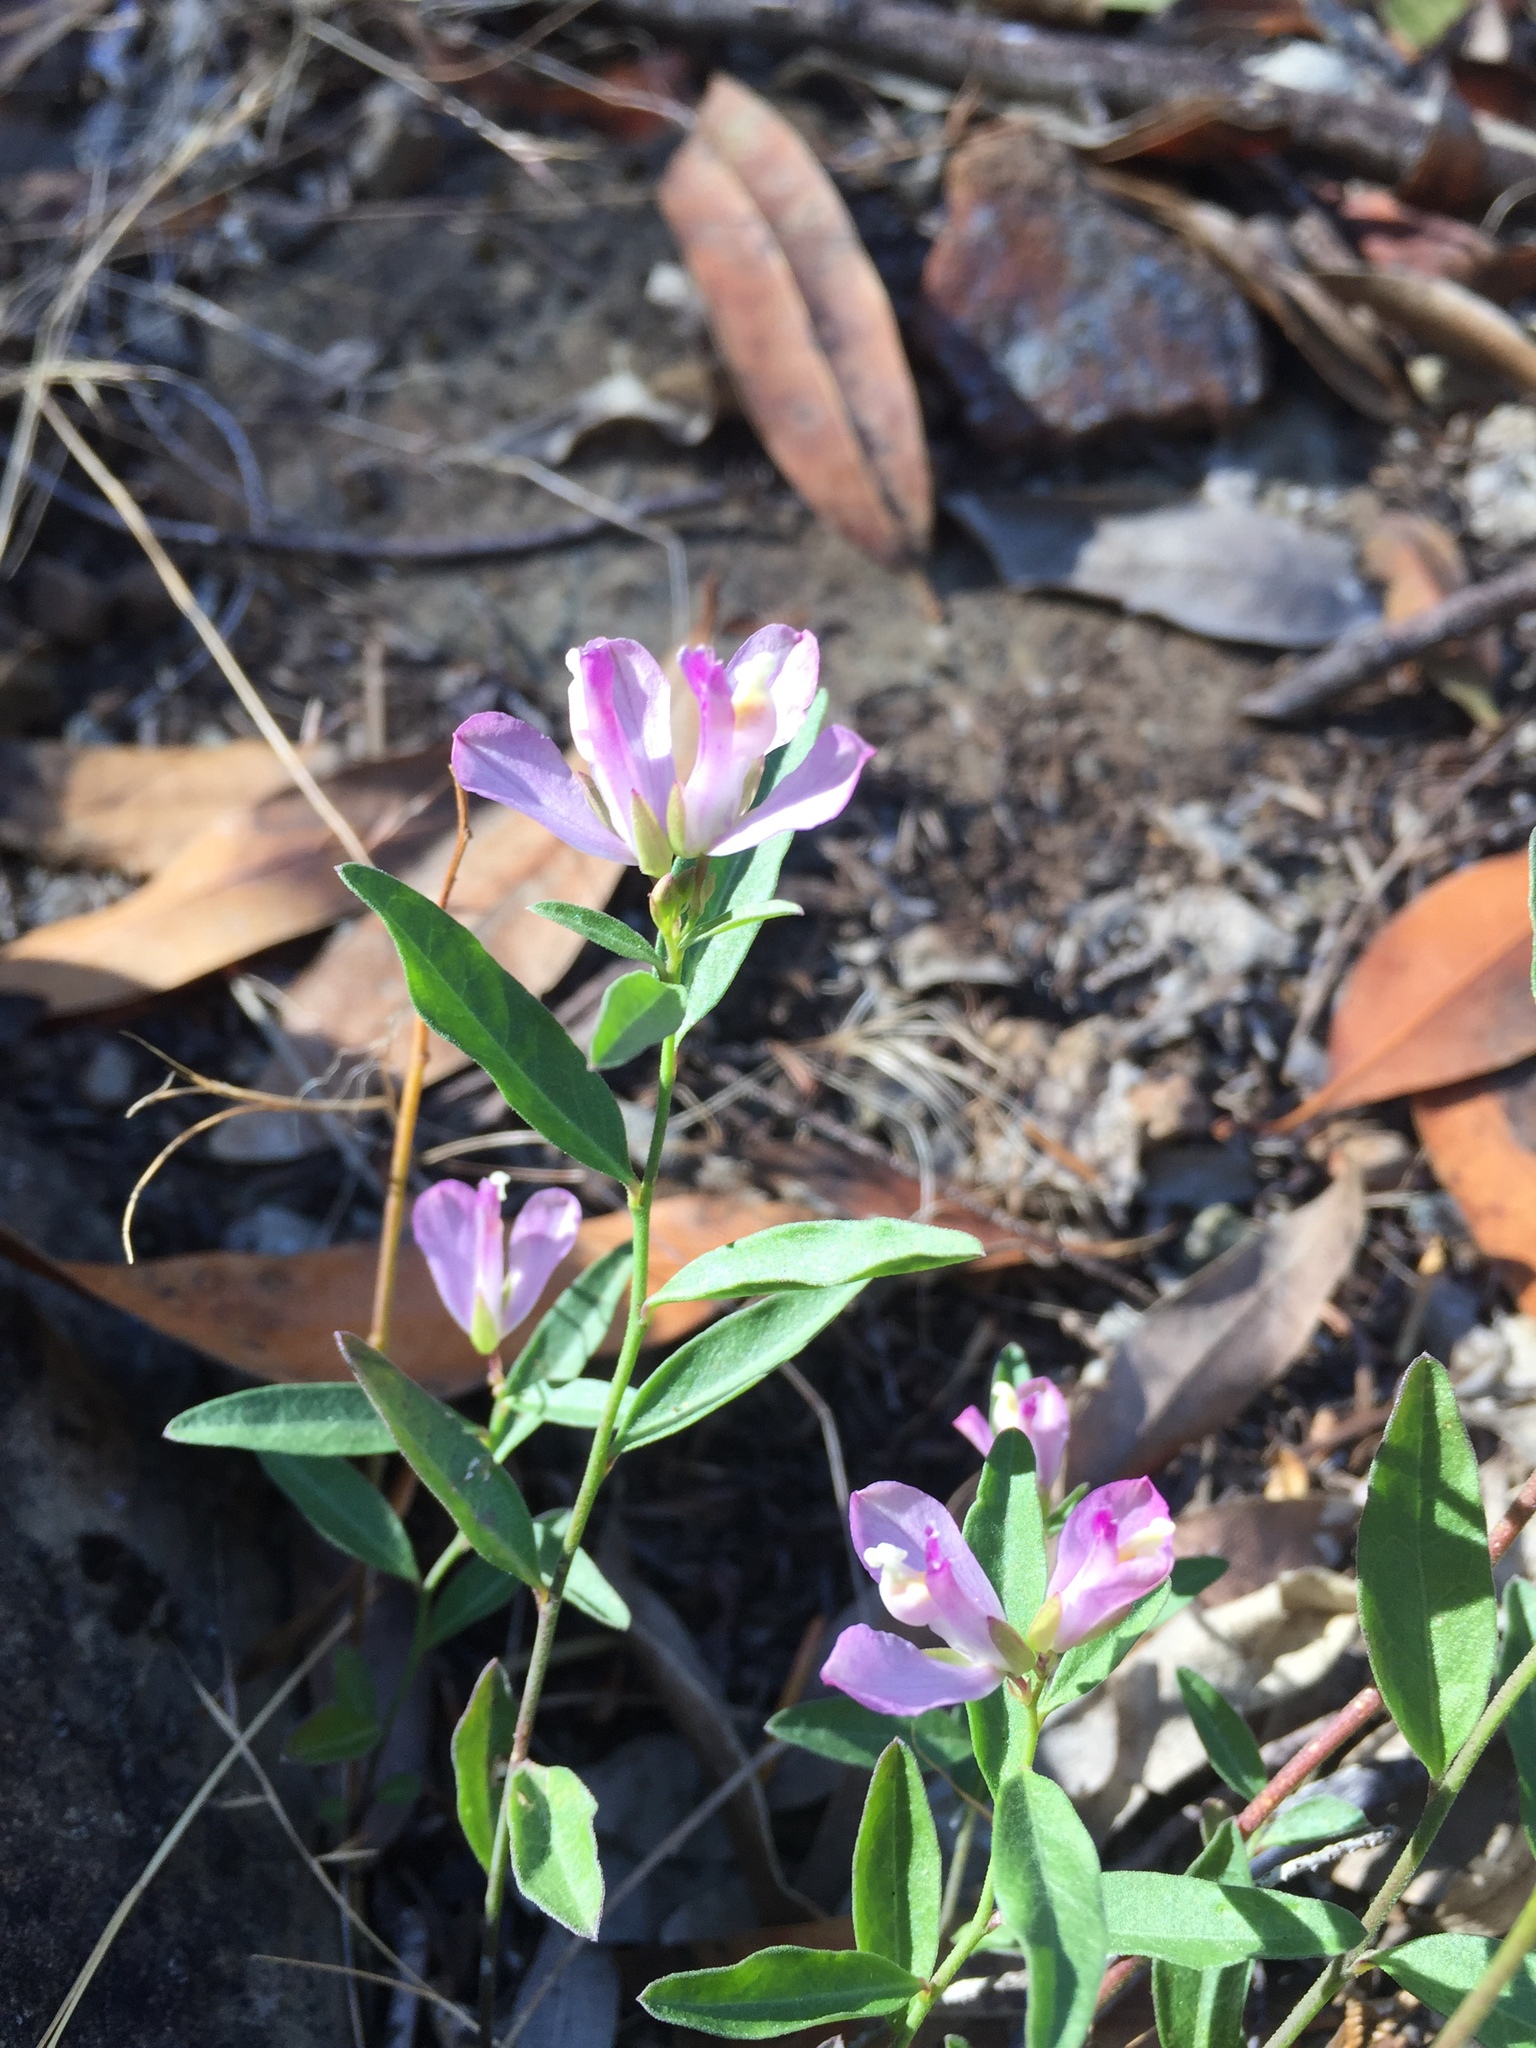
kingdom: Plantae
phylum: Tracheophyta
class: Magnoliopsida
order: Fabales
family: Polygalaceae
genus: Rhinotropis
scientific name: Rhinotropis californica
